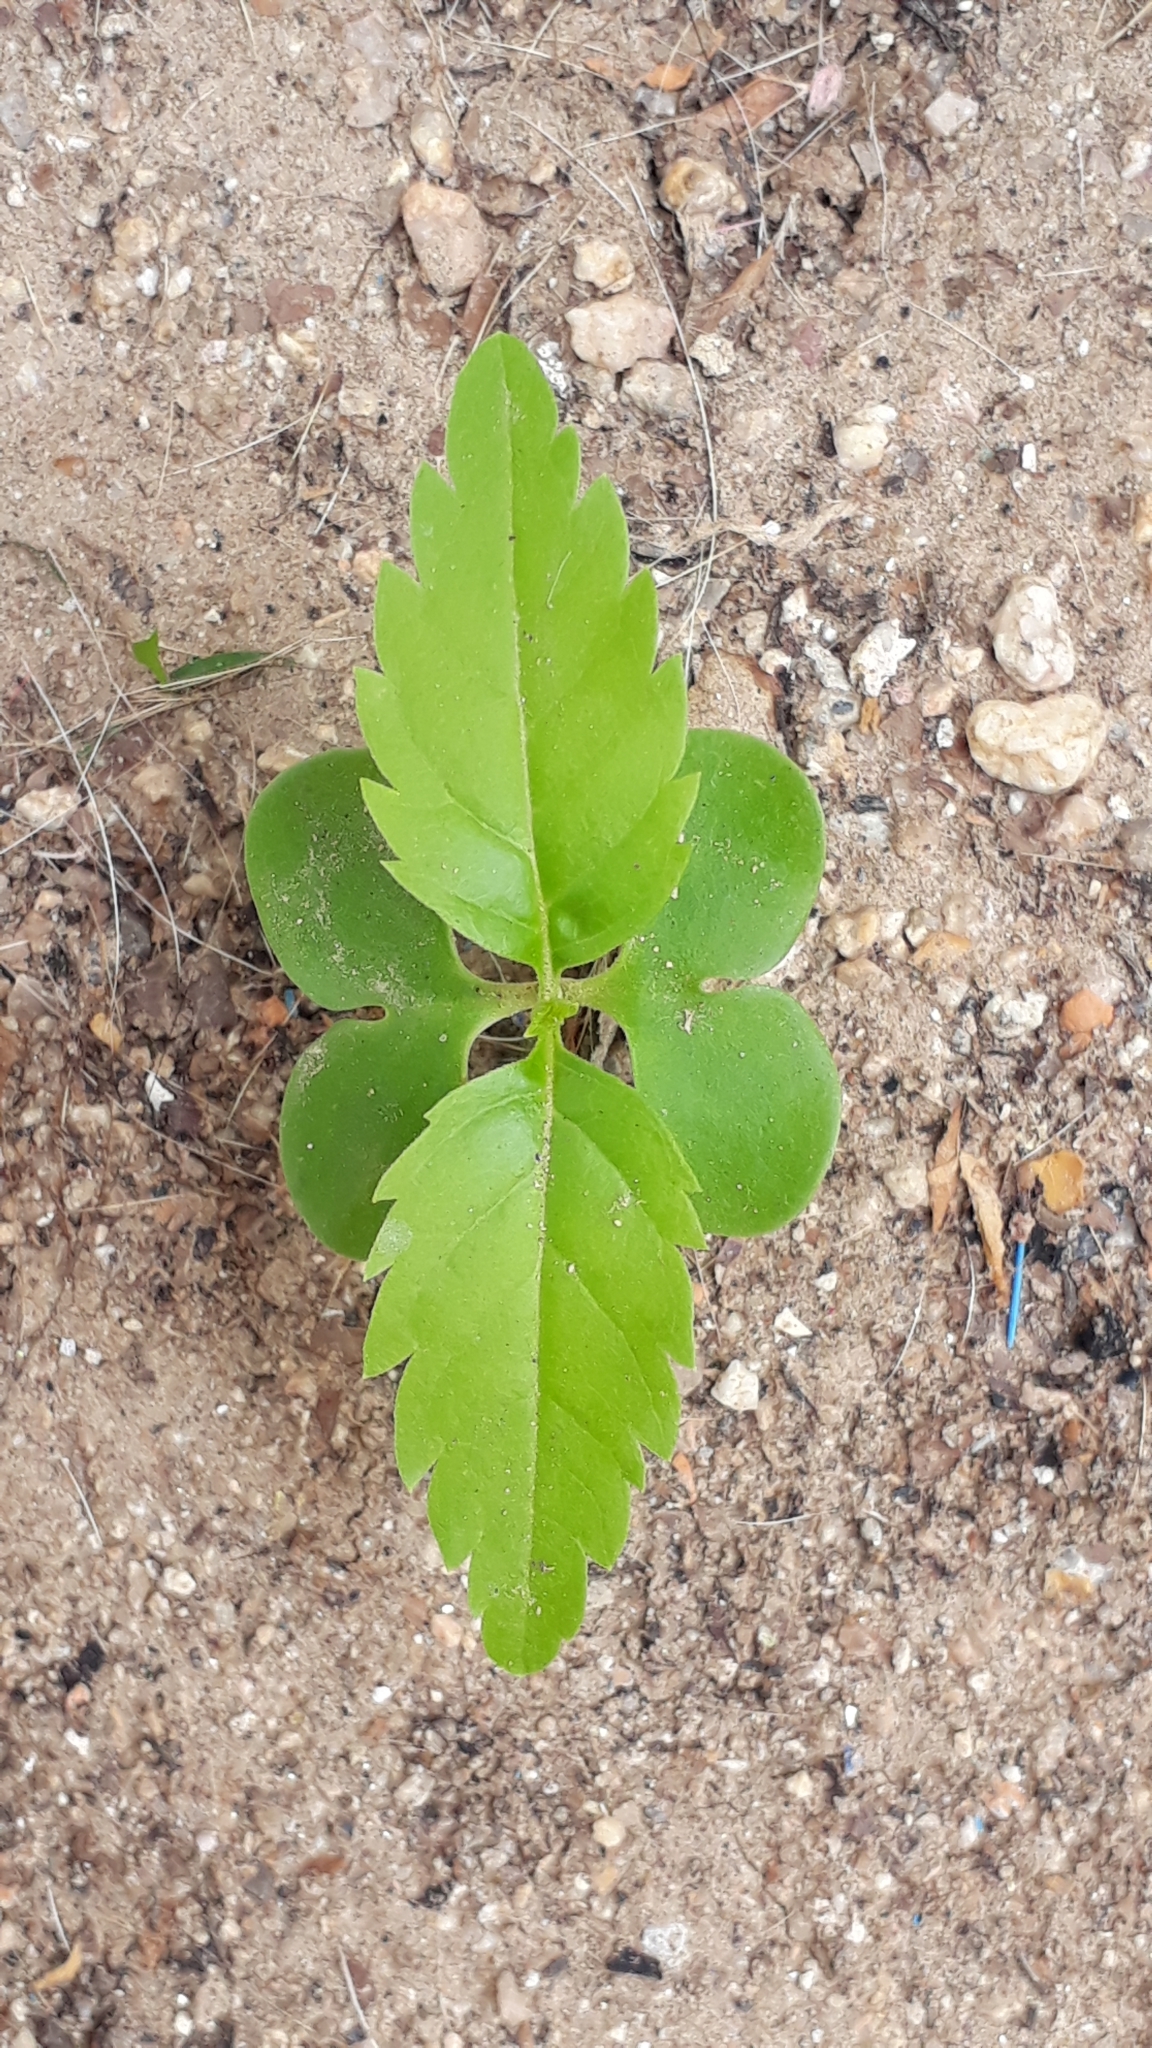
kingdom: Plantae
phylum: Tracheophyta
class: Magnoliopsida
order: Lamiales
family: Bignoniaceae
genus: Tecoma
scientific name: Tecoma stans
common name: Yellow trumpetbush
